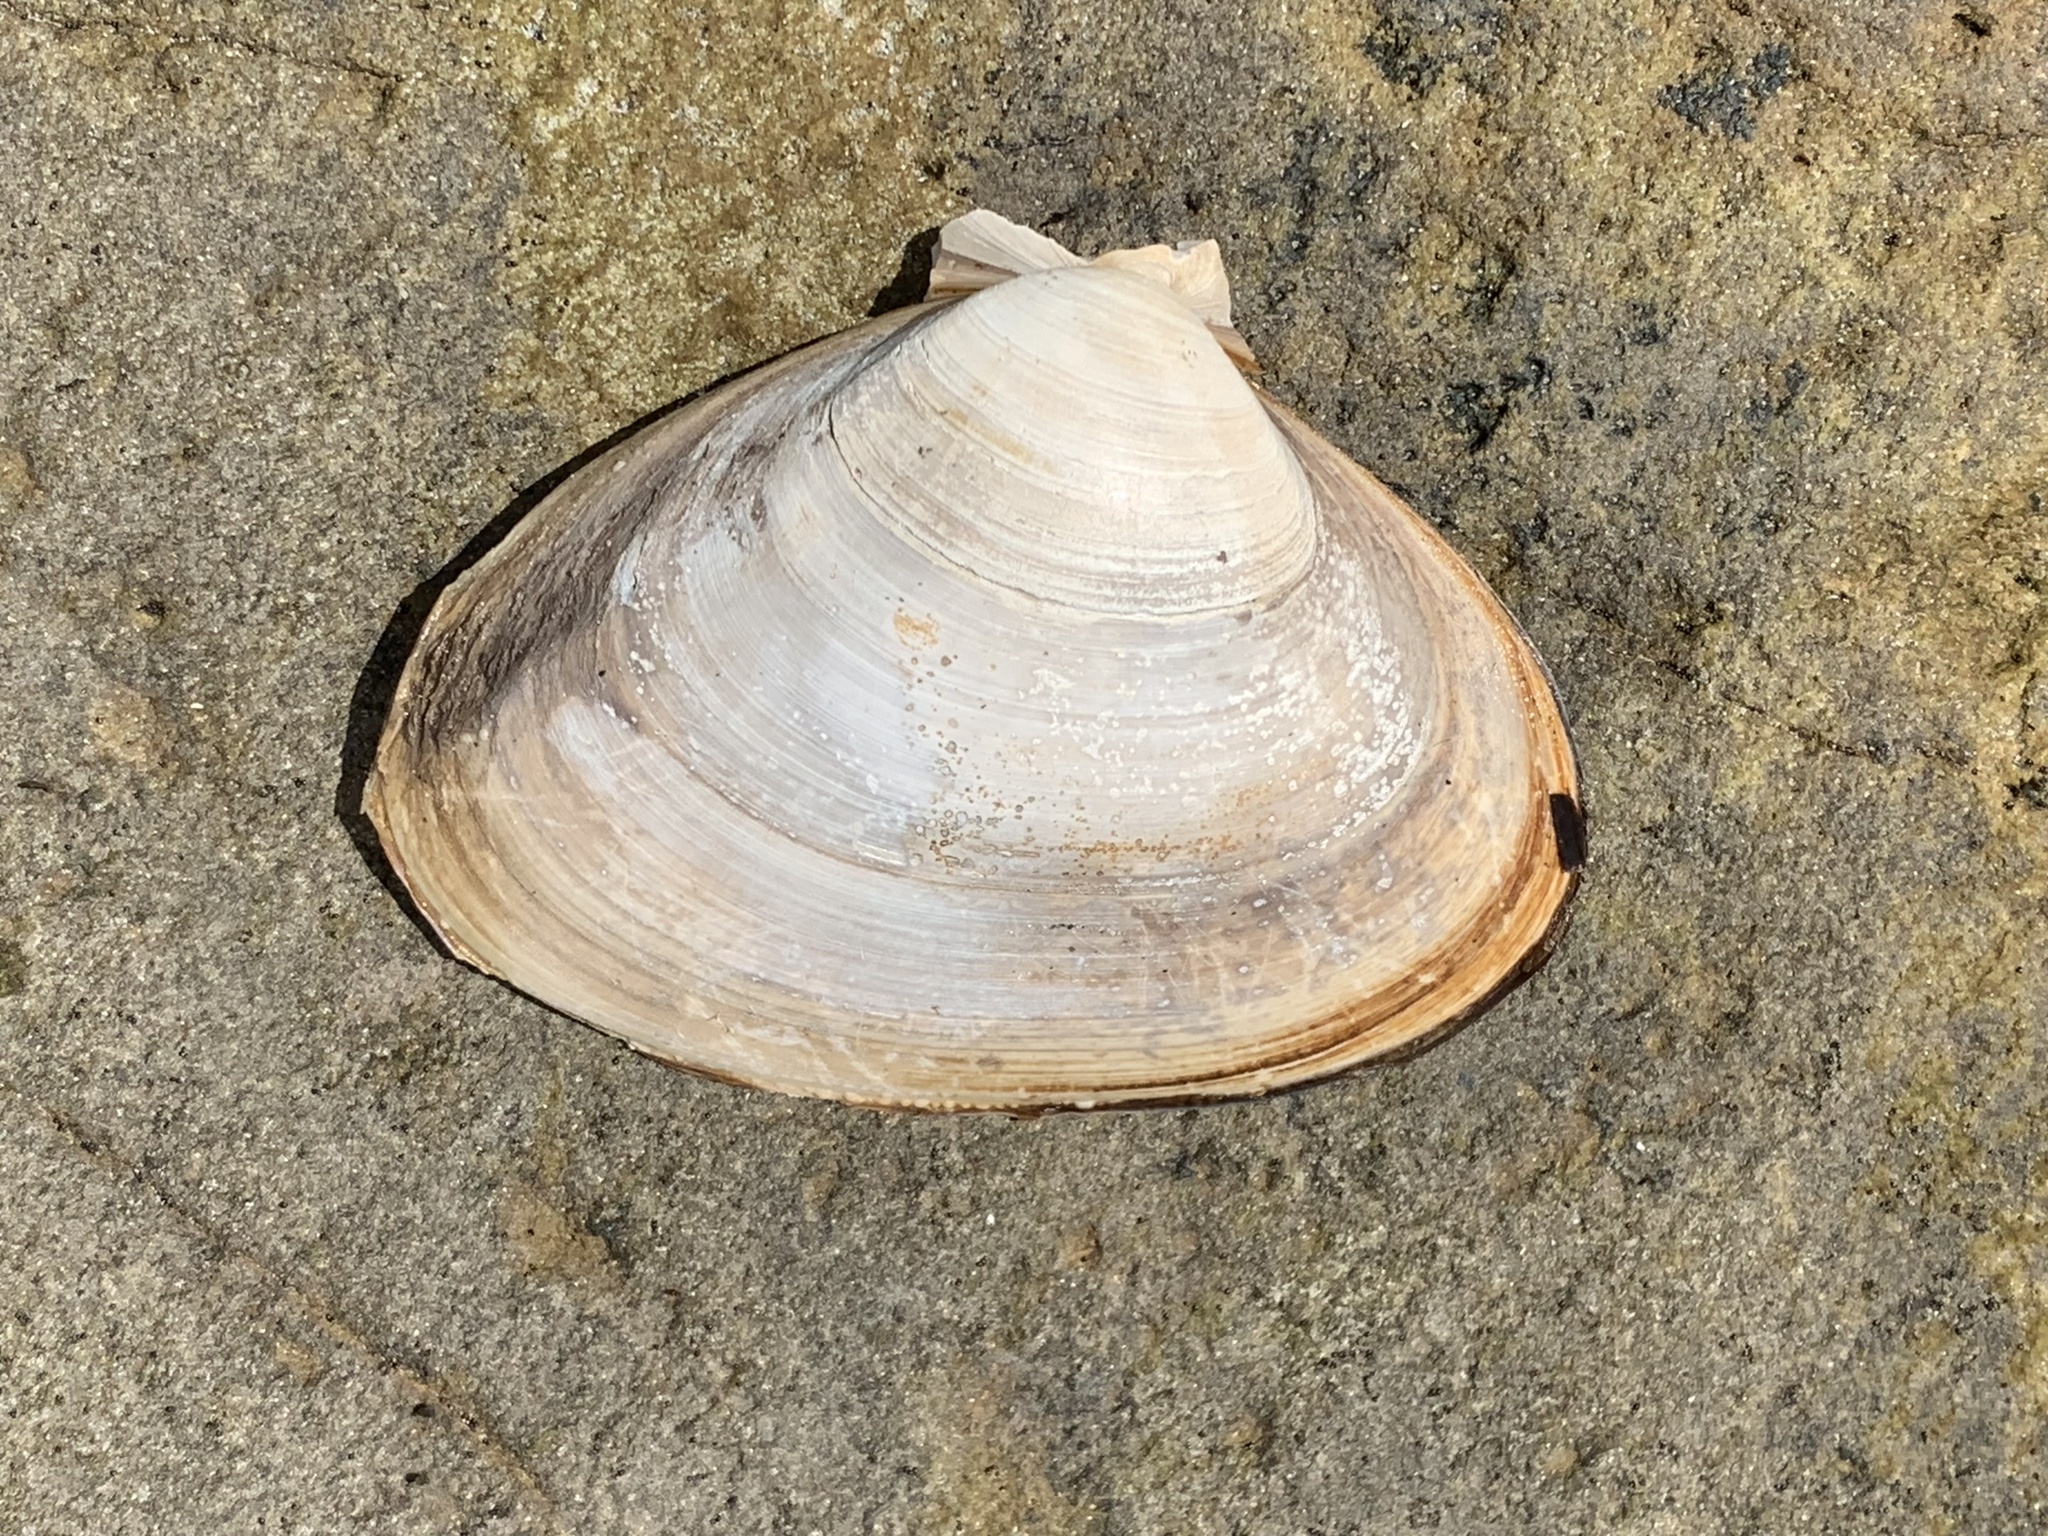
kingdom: Animalia
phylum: Mollusca
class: Bivalvia
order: Venerida
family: Mactridae
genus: Spisula
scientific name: Spisula solidissima
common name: Atlantic surf clam
